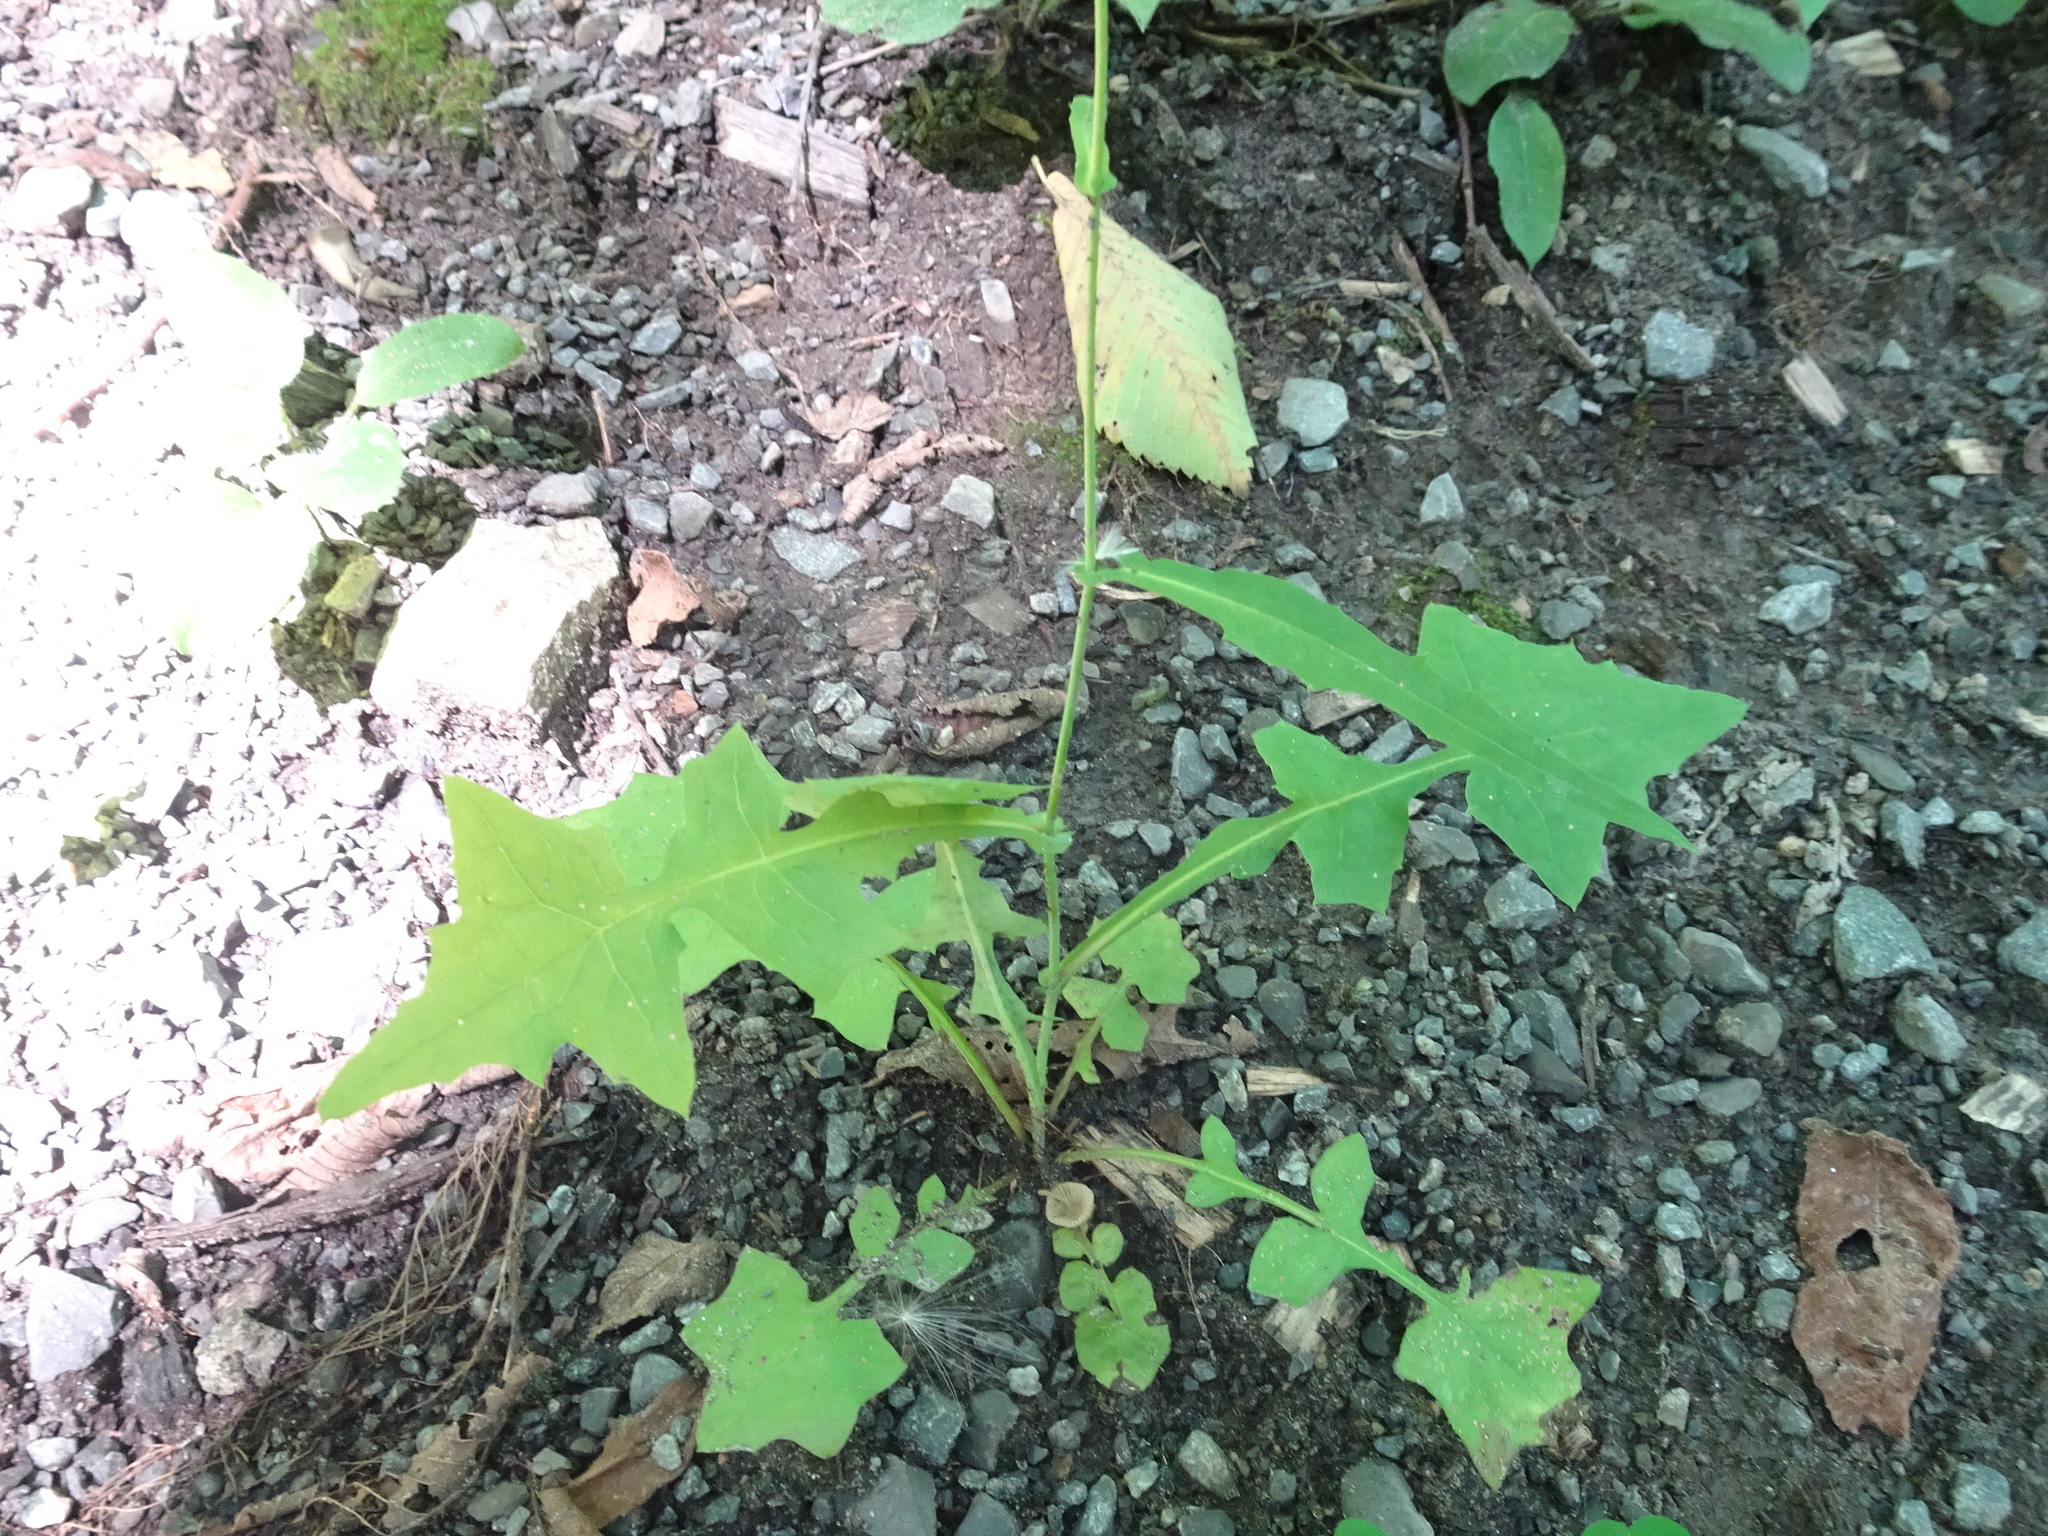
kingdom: Plantae
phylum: Tracheophyta
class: Magnoliopsida
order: Asterales
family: Asteraceae
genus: Mycelis
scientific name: Mycelis muralis
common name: Wall lettuce
